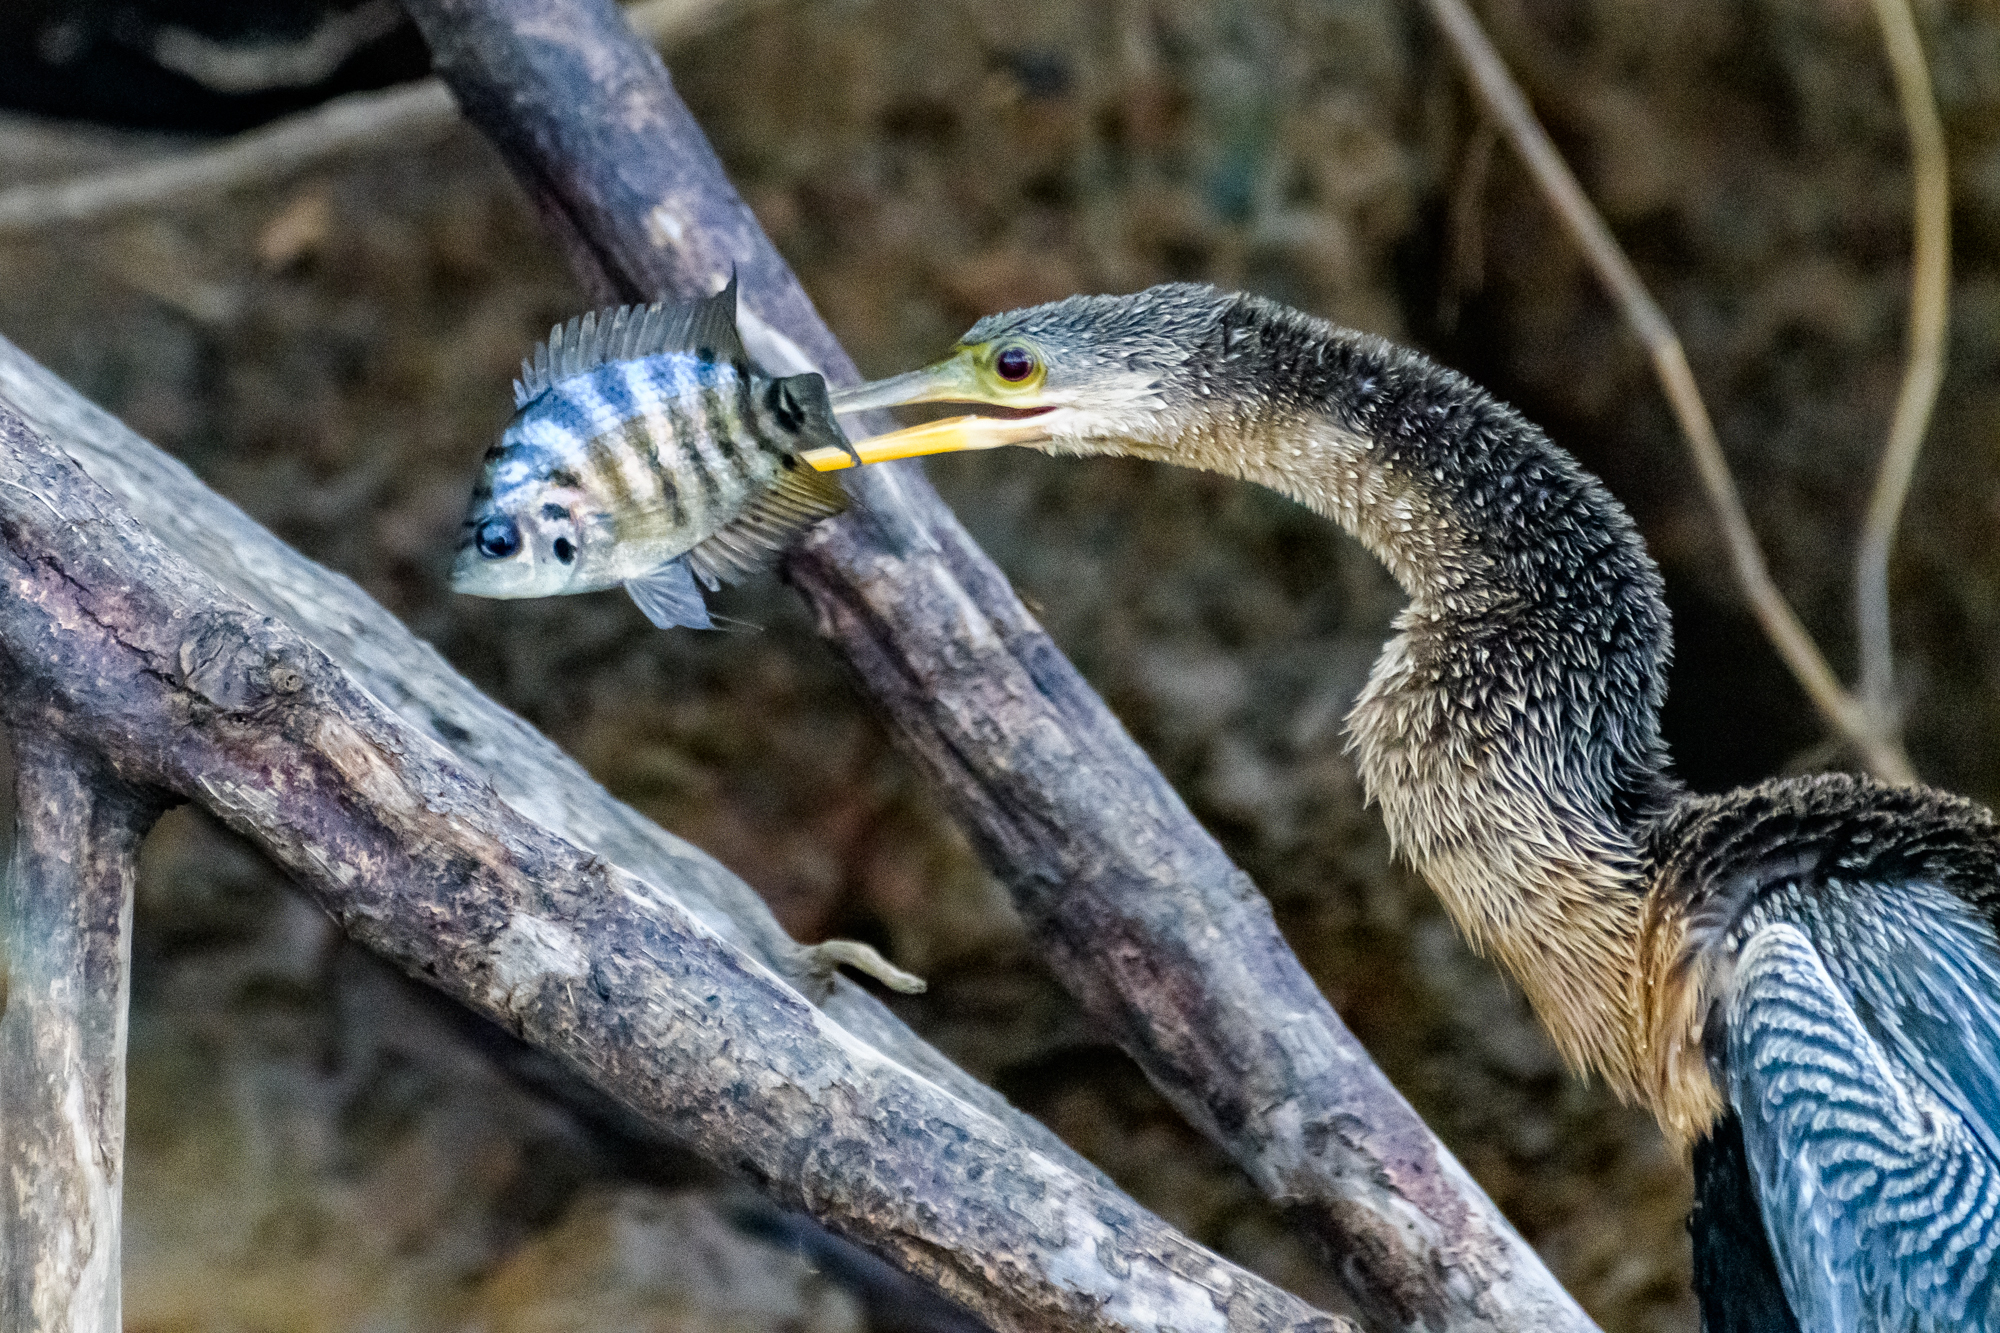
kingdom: Animalia
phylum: Chordata
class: Aves
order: Suliformes
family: Anhingidae
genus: Anhinga
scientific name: Anhinga anhinga
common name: Anhinga
